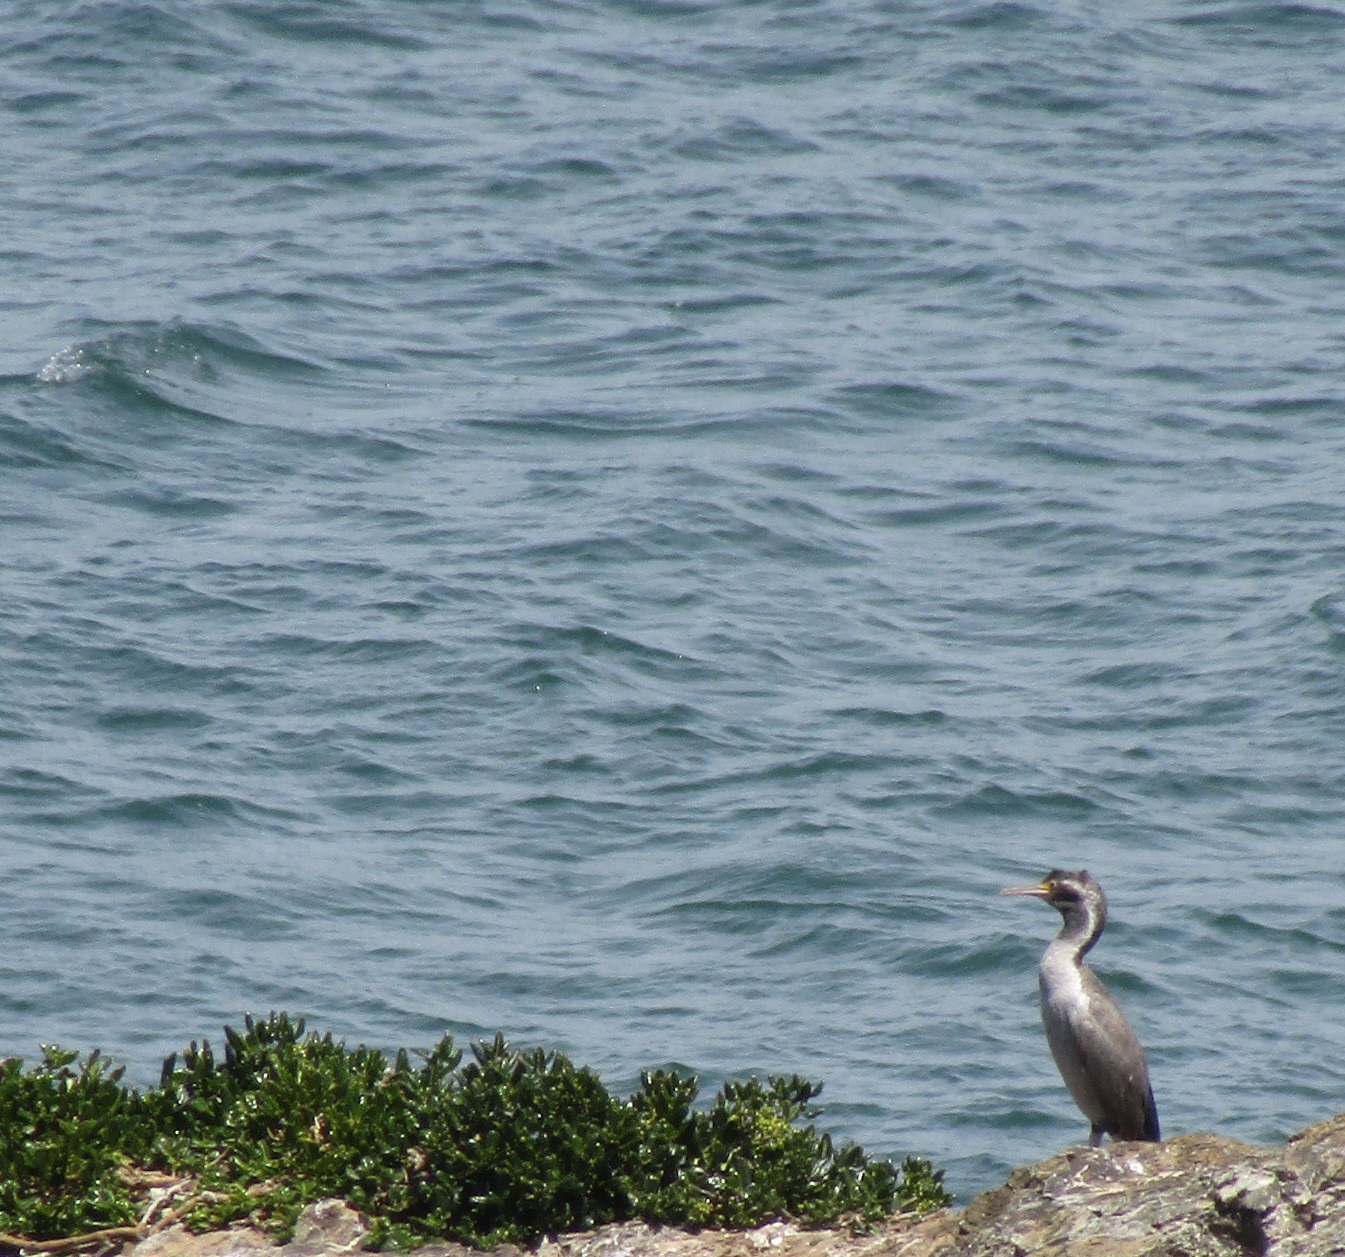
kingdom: Animalia
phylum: Chordata
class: Aves
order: Suliformes
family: Phalacrocoracidae
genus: Phalacrocorax
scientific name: Phalacrocorax punctatus
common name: Spotted shag
